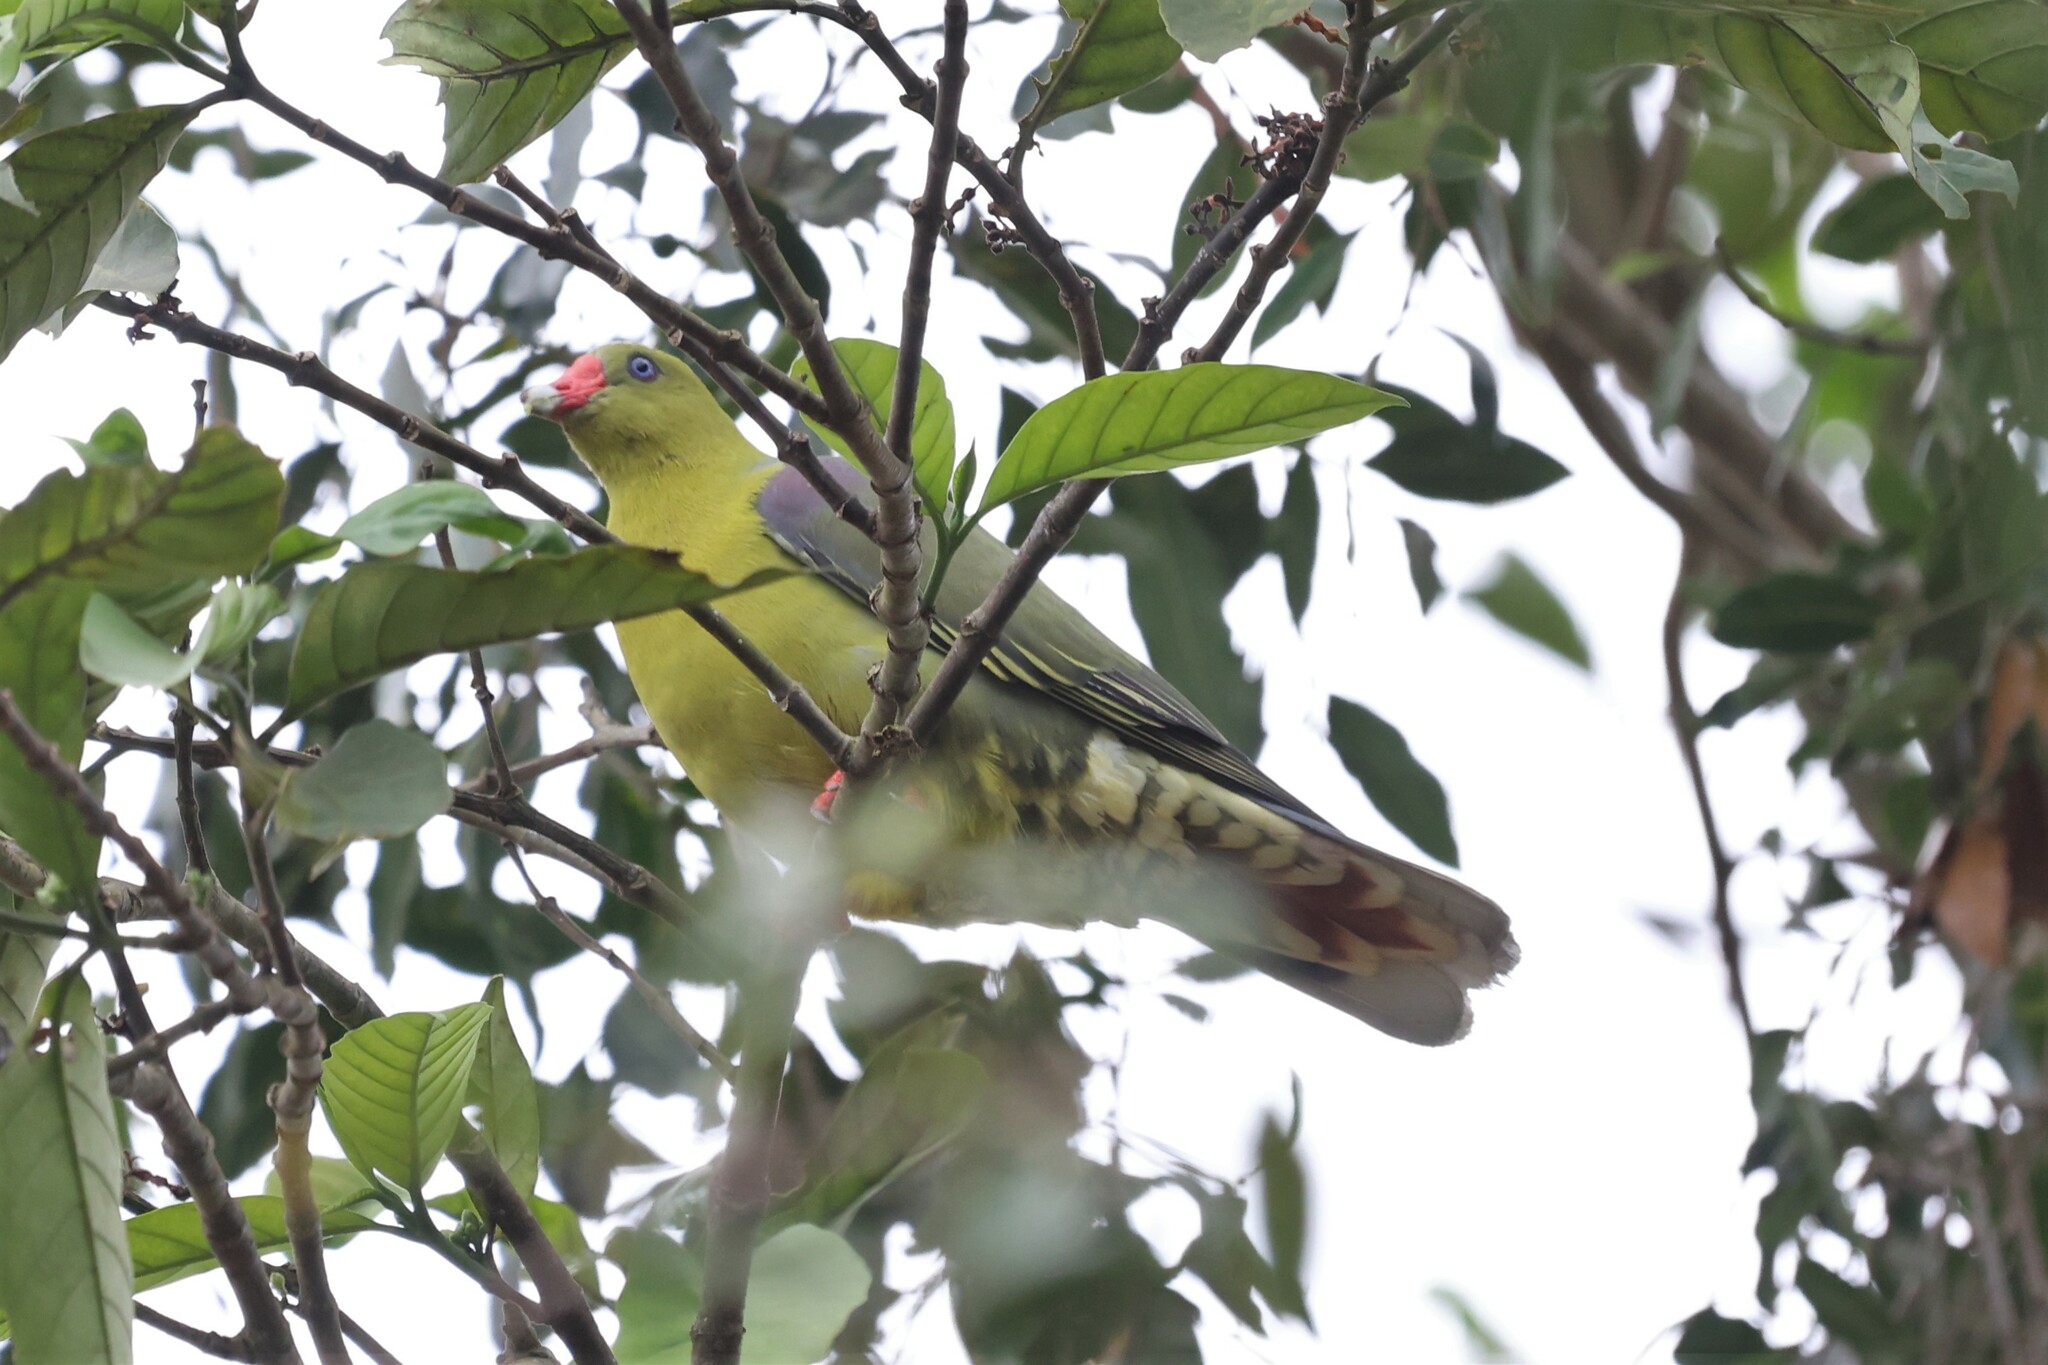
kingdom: Animalia
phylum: Chordata
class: Aves
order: Columbiformes
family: Columbidae
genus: Treron
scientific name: Treron calvus
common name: African green pigeon
